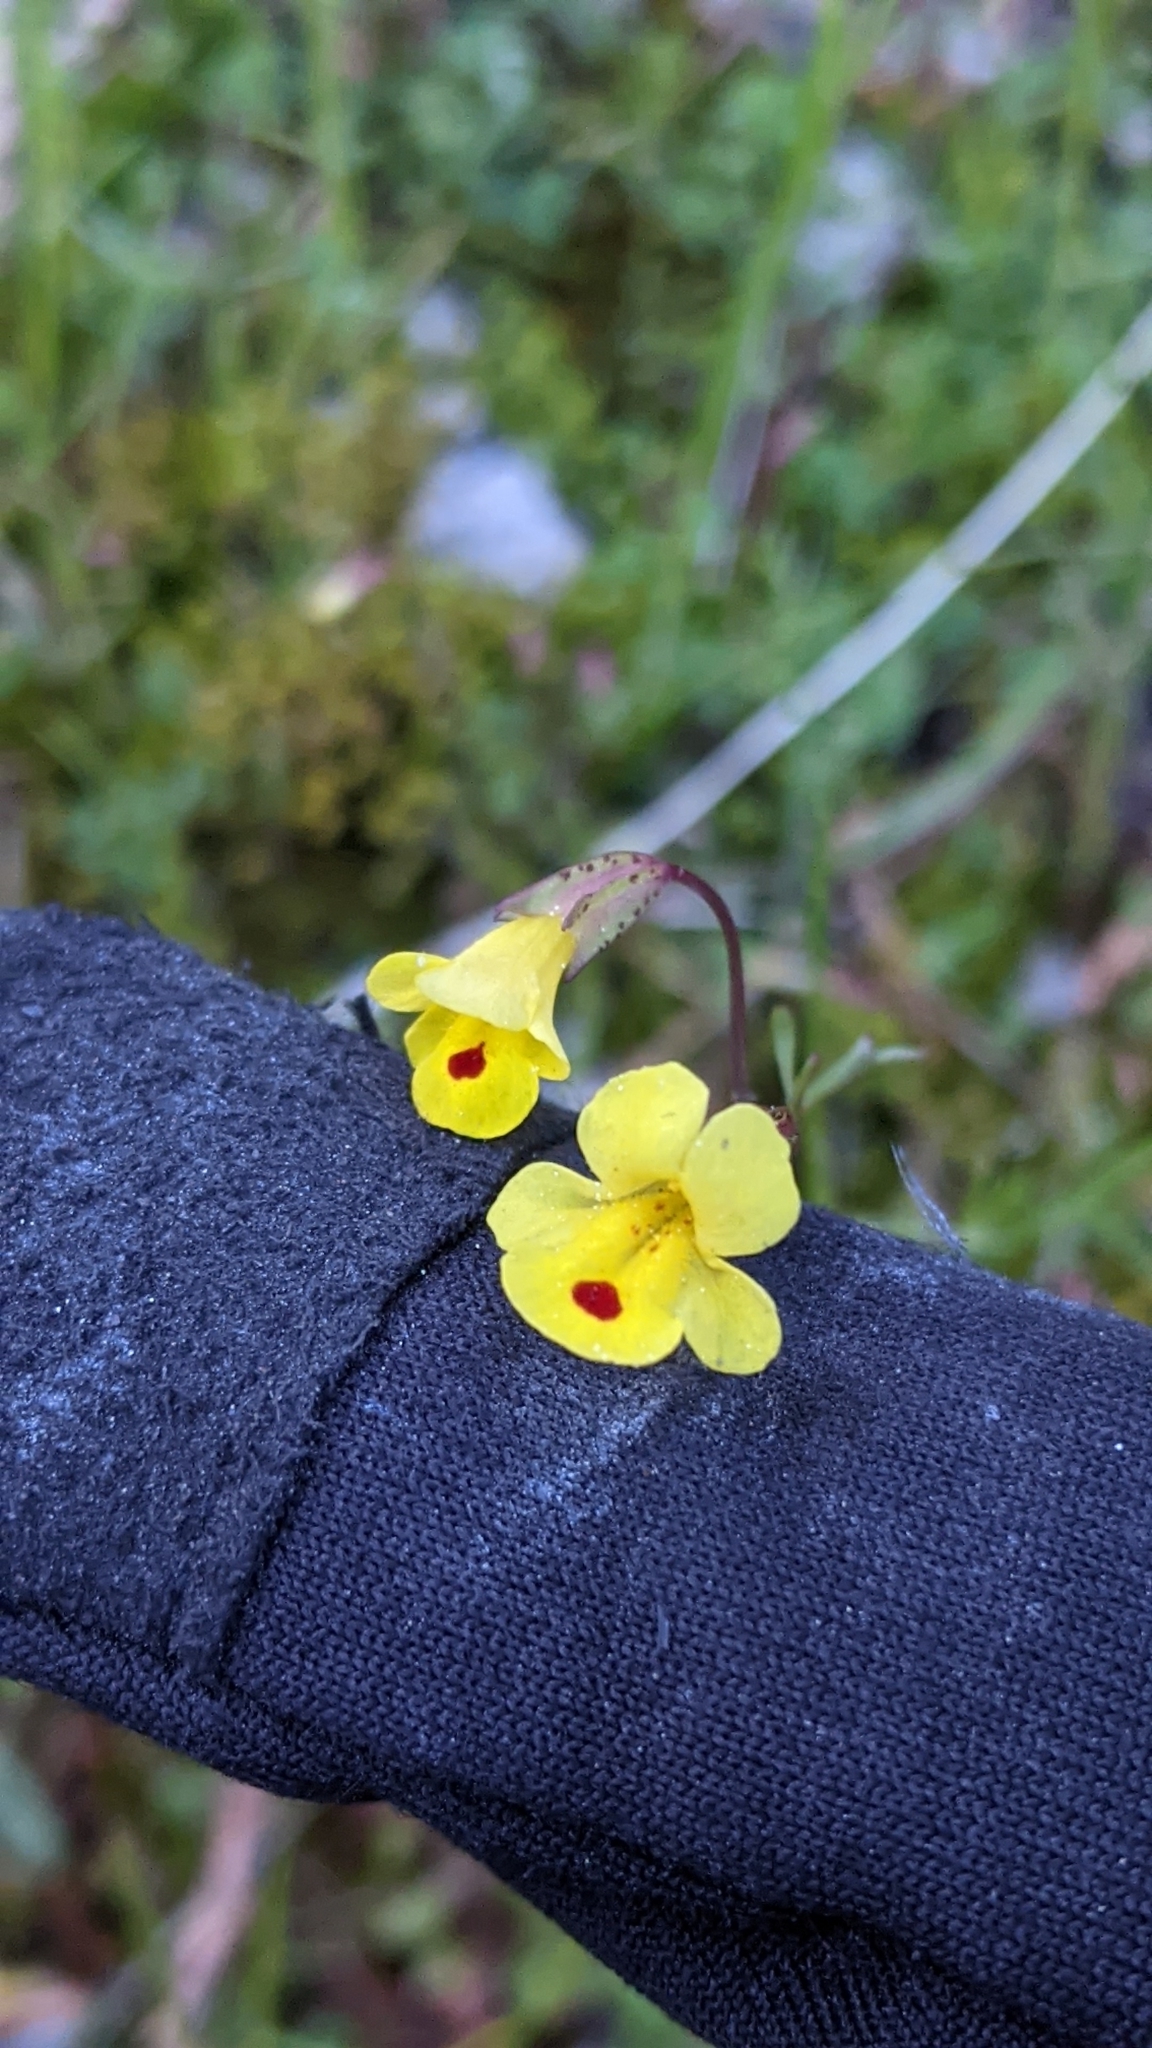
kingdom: Plantae
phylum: Tracheophyta
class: Magnoliopsida
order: Lamiales
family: Phrymaceae
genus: Erythranthe
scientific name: Erythranthe laciniata
